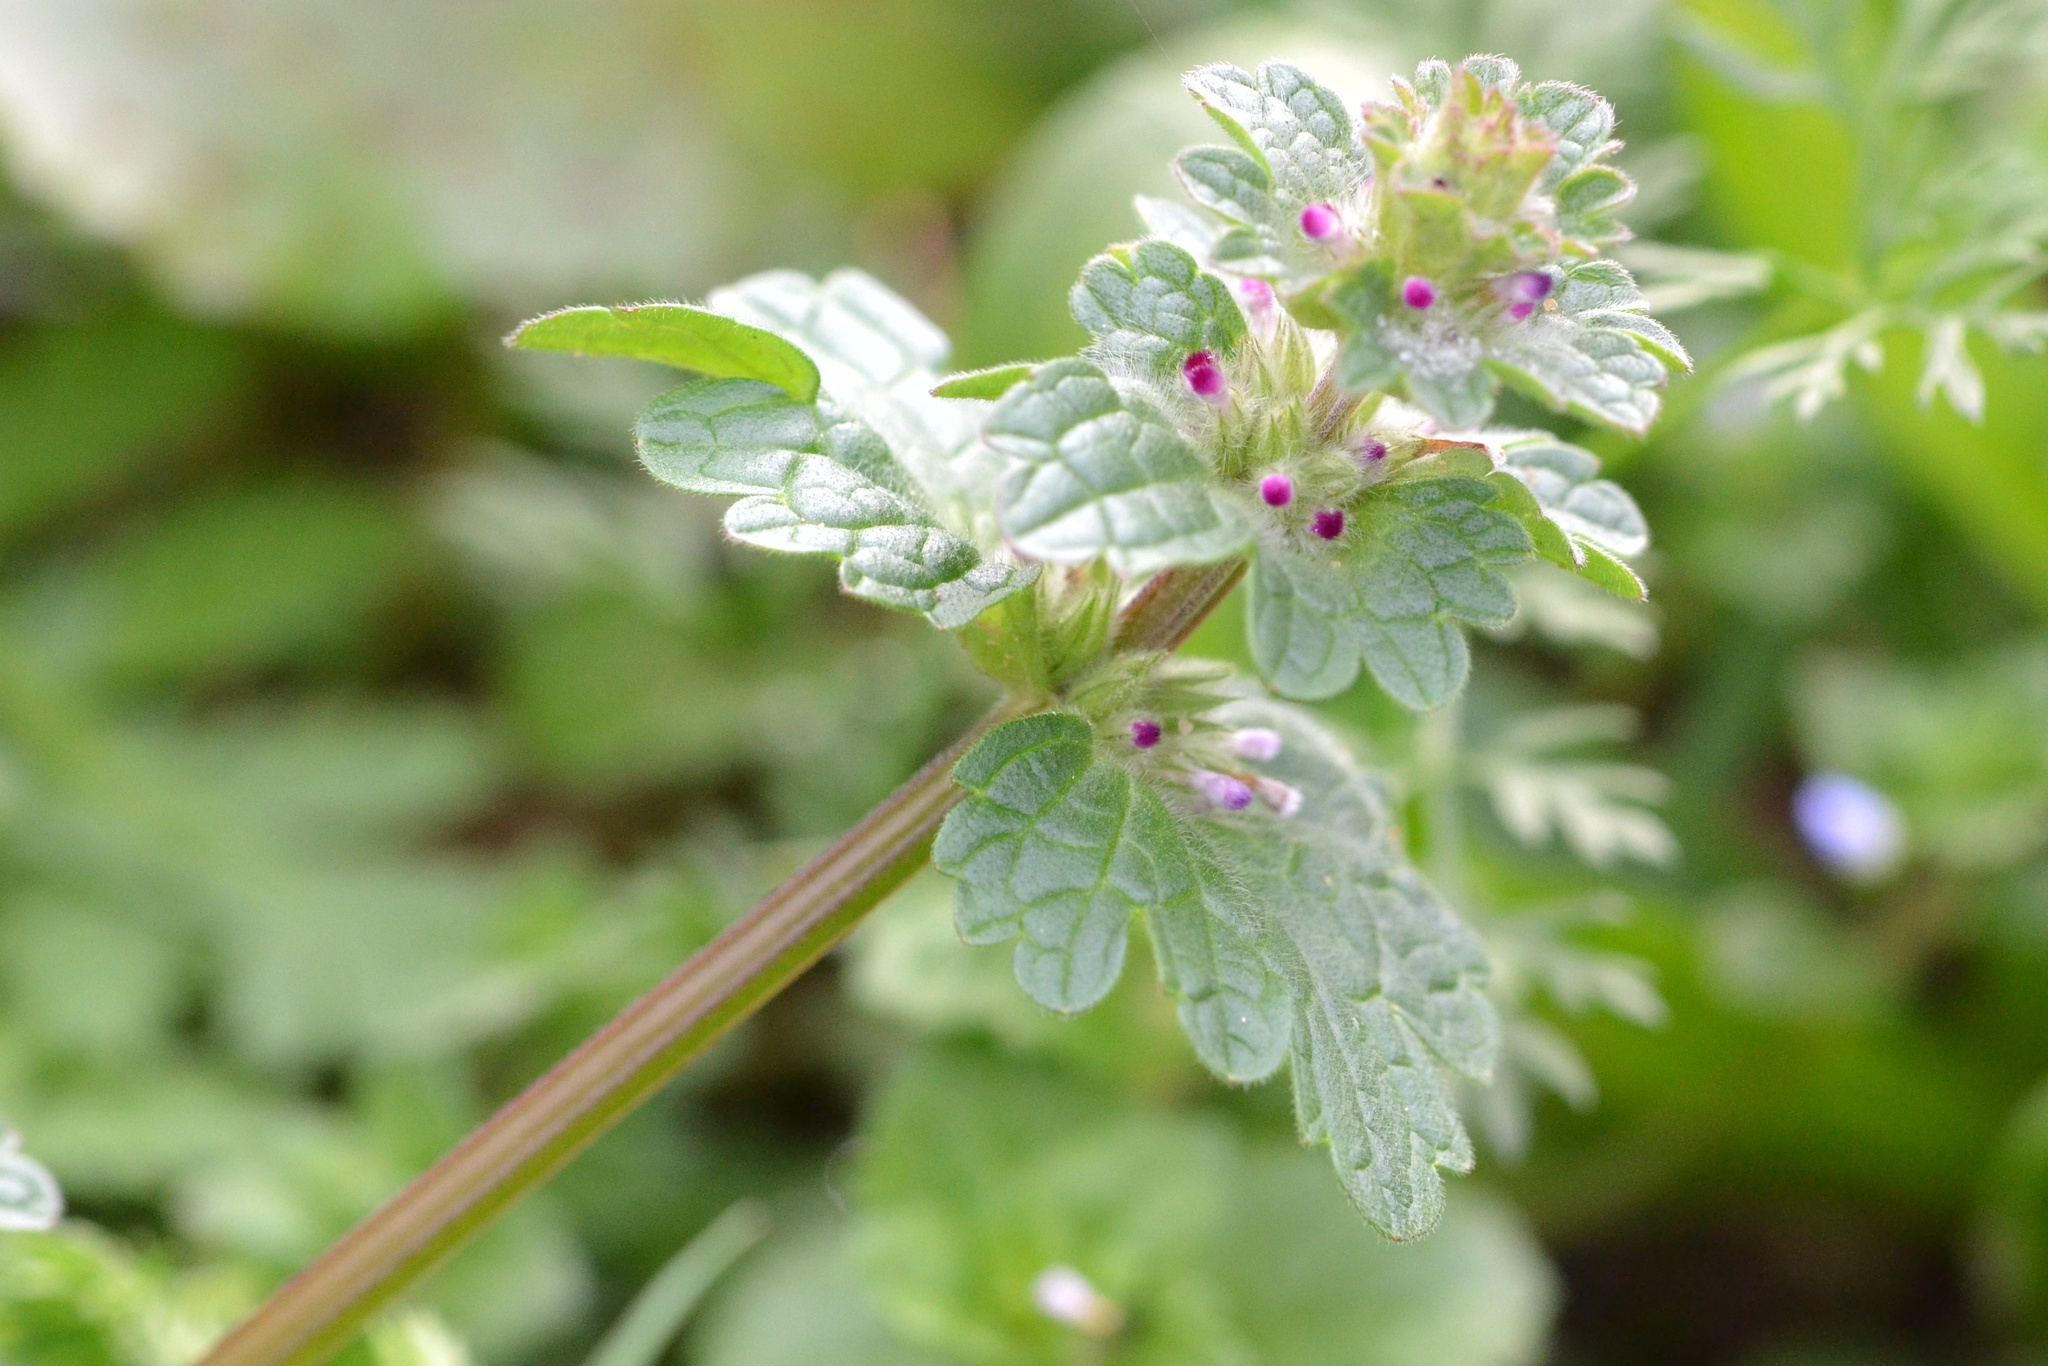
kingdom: Plantae
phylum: Tracheophyta
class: Magnoliopsida
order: Lamiales
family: Lamiaceae
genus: Lamium
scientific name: Lamium amplexicaule
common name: Henbit dead-nettle
